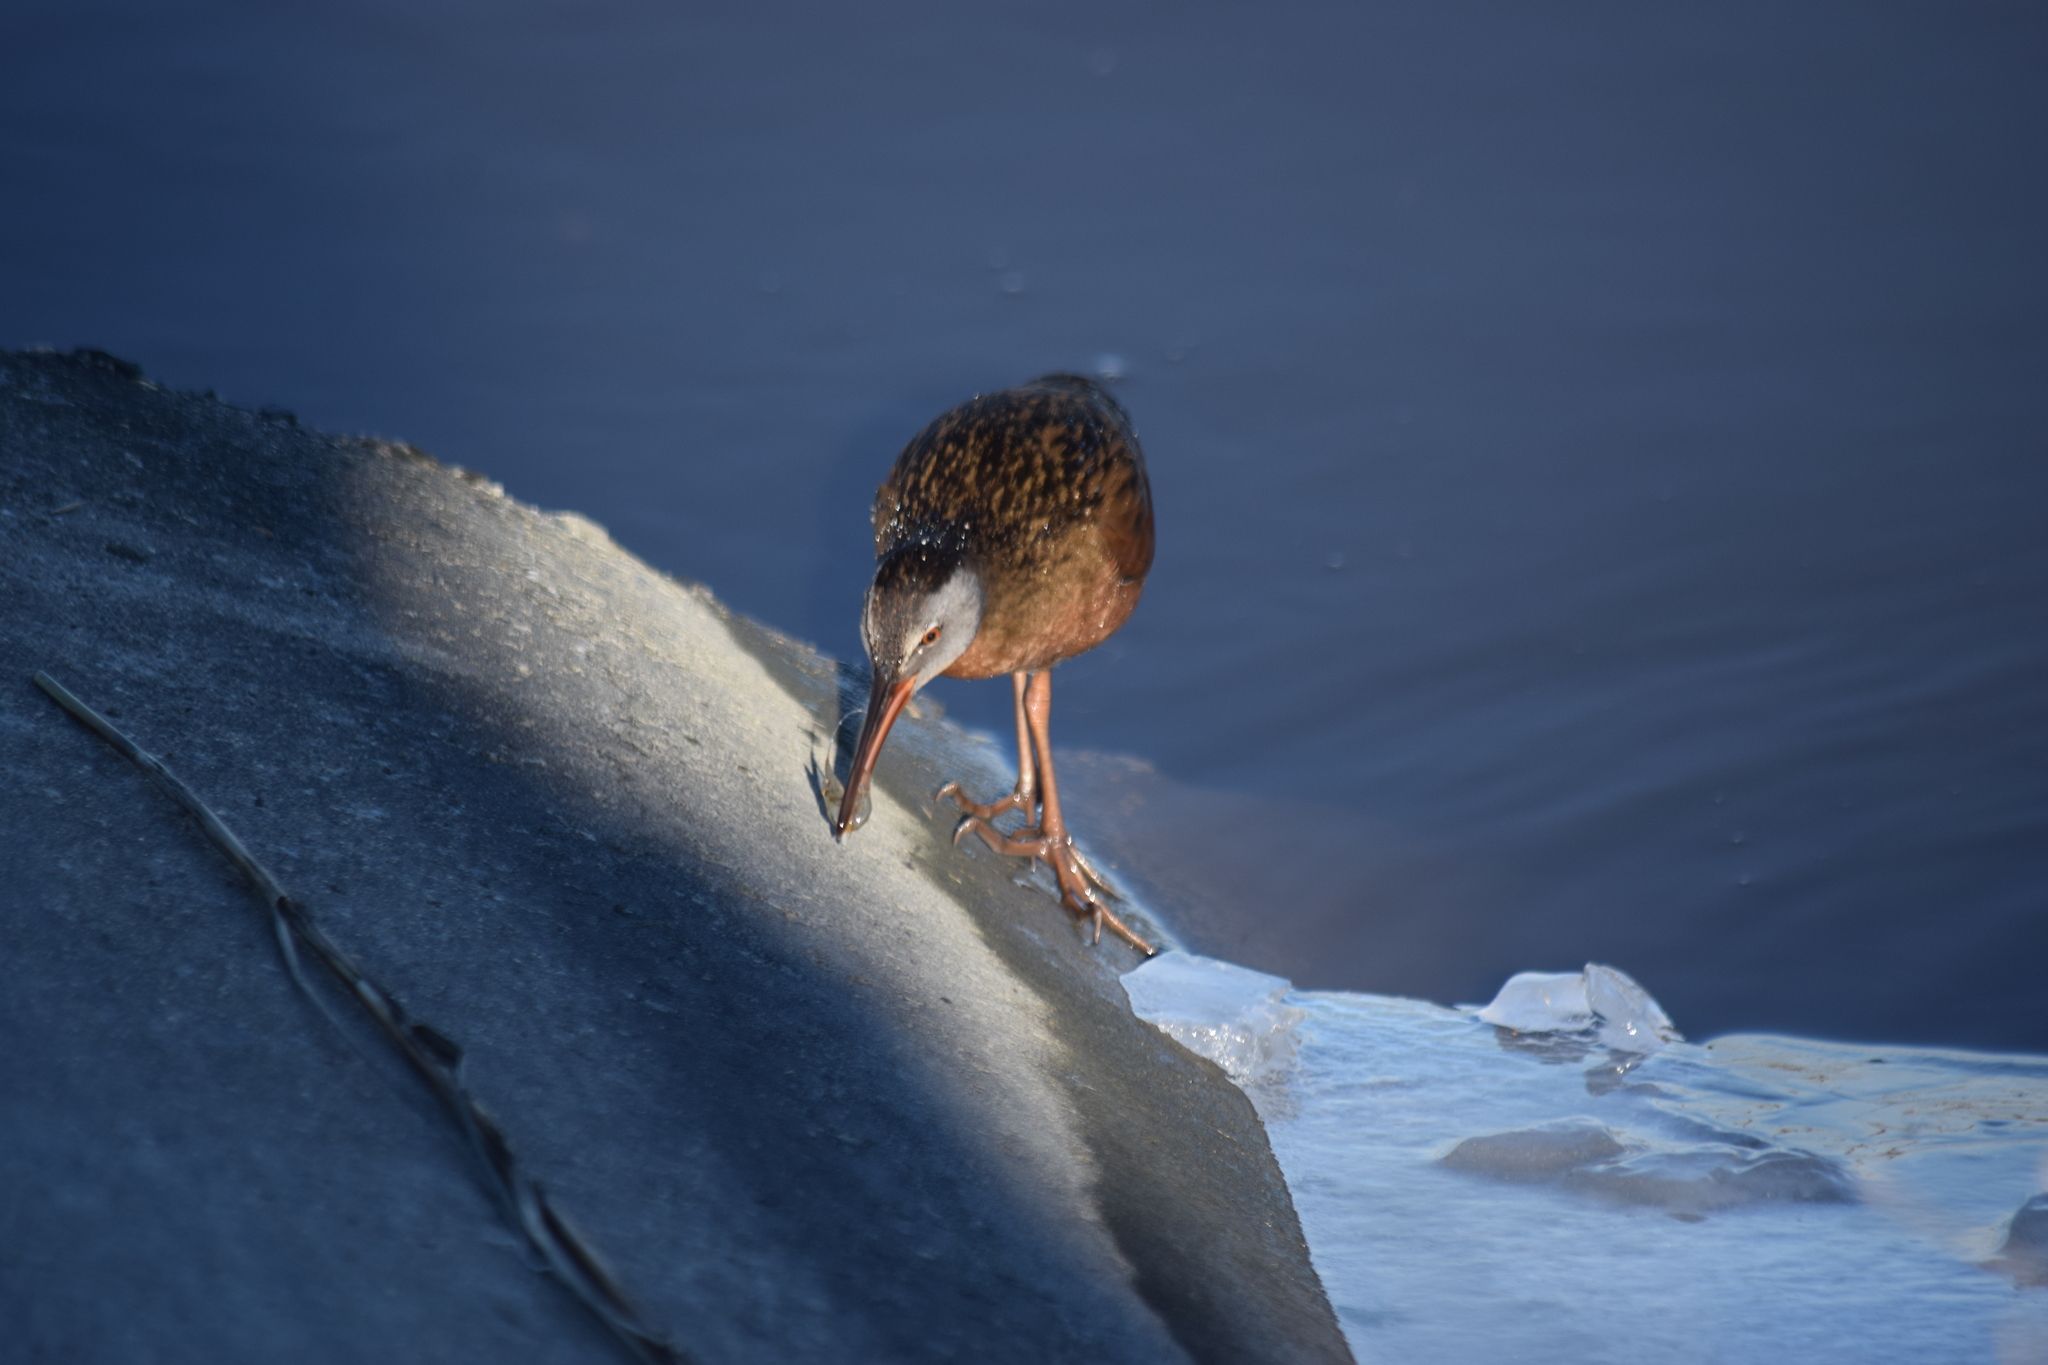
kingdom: Animalia
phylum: Chordata
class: Aves
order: Gruiformes
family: Rallidae
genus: Rallus
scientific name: Rallus limicola
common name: Virginia rail
